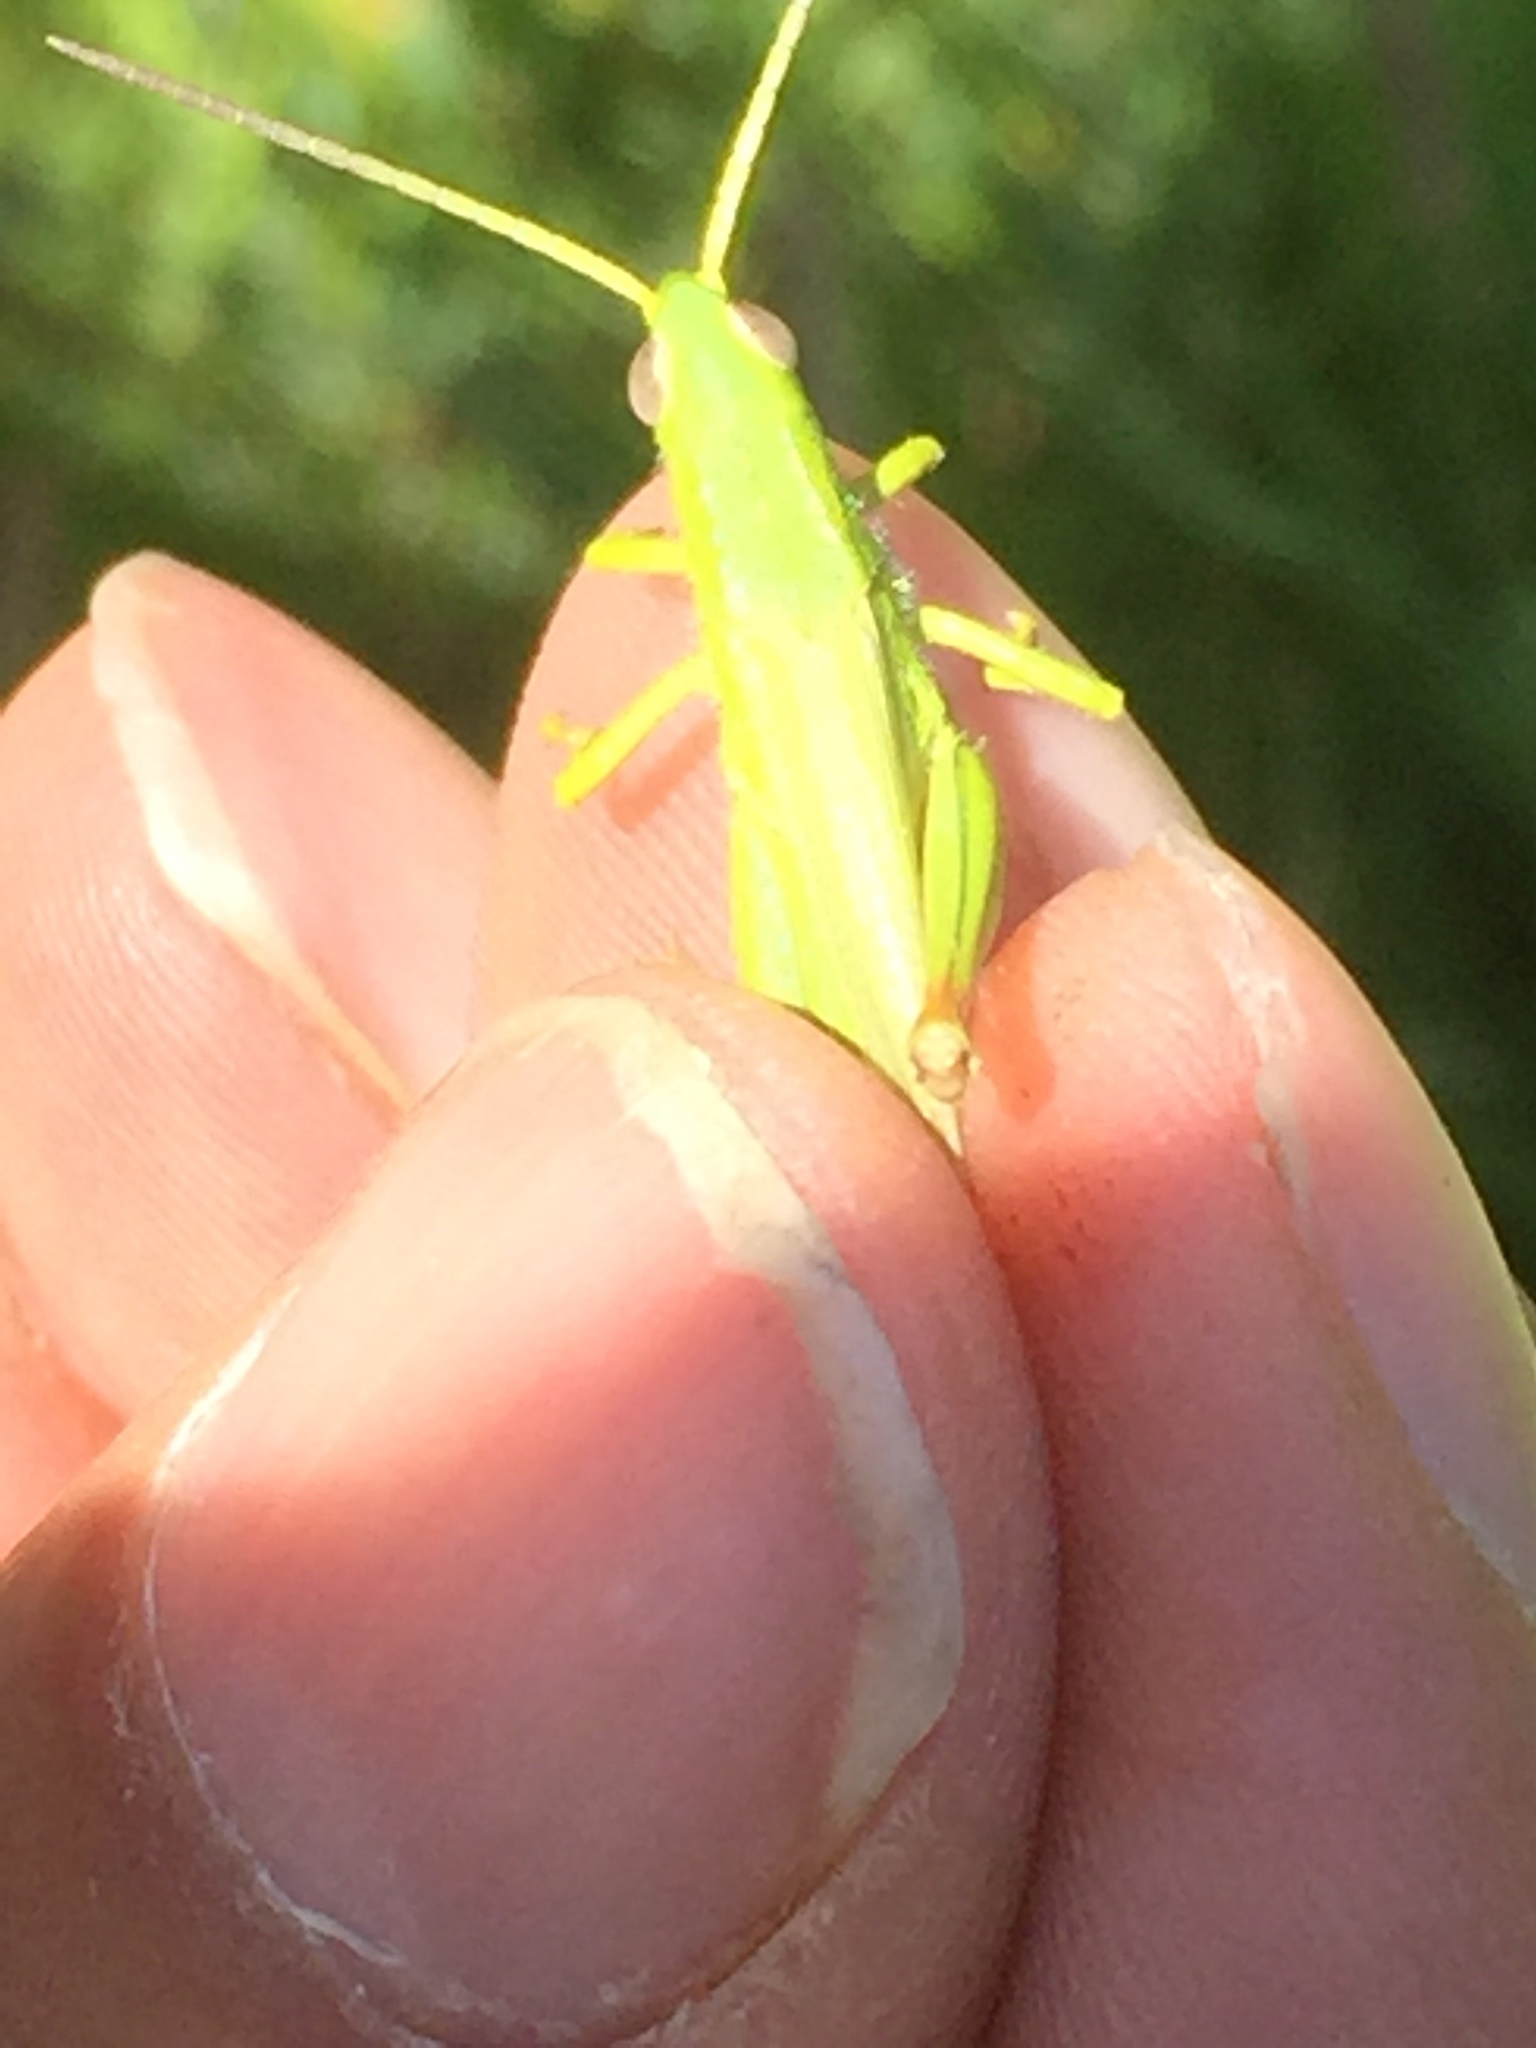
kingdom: Animalia
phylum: Arthropoda
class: Insecta
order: Orthoptera
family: Acrididae
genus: Chorthippus
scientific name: Chorthippus jucundus
